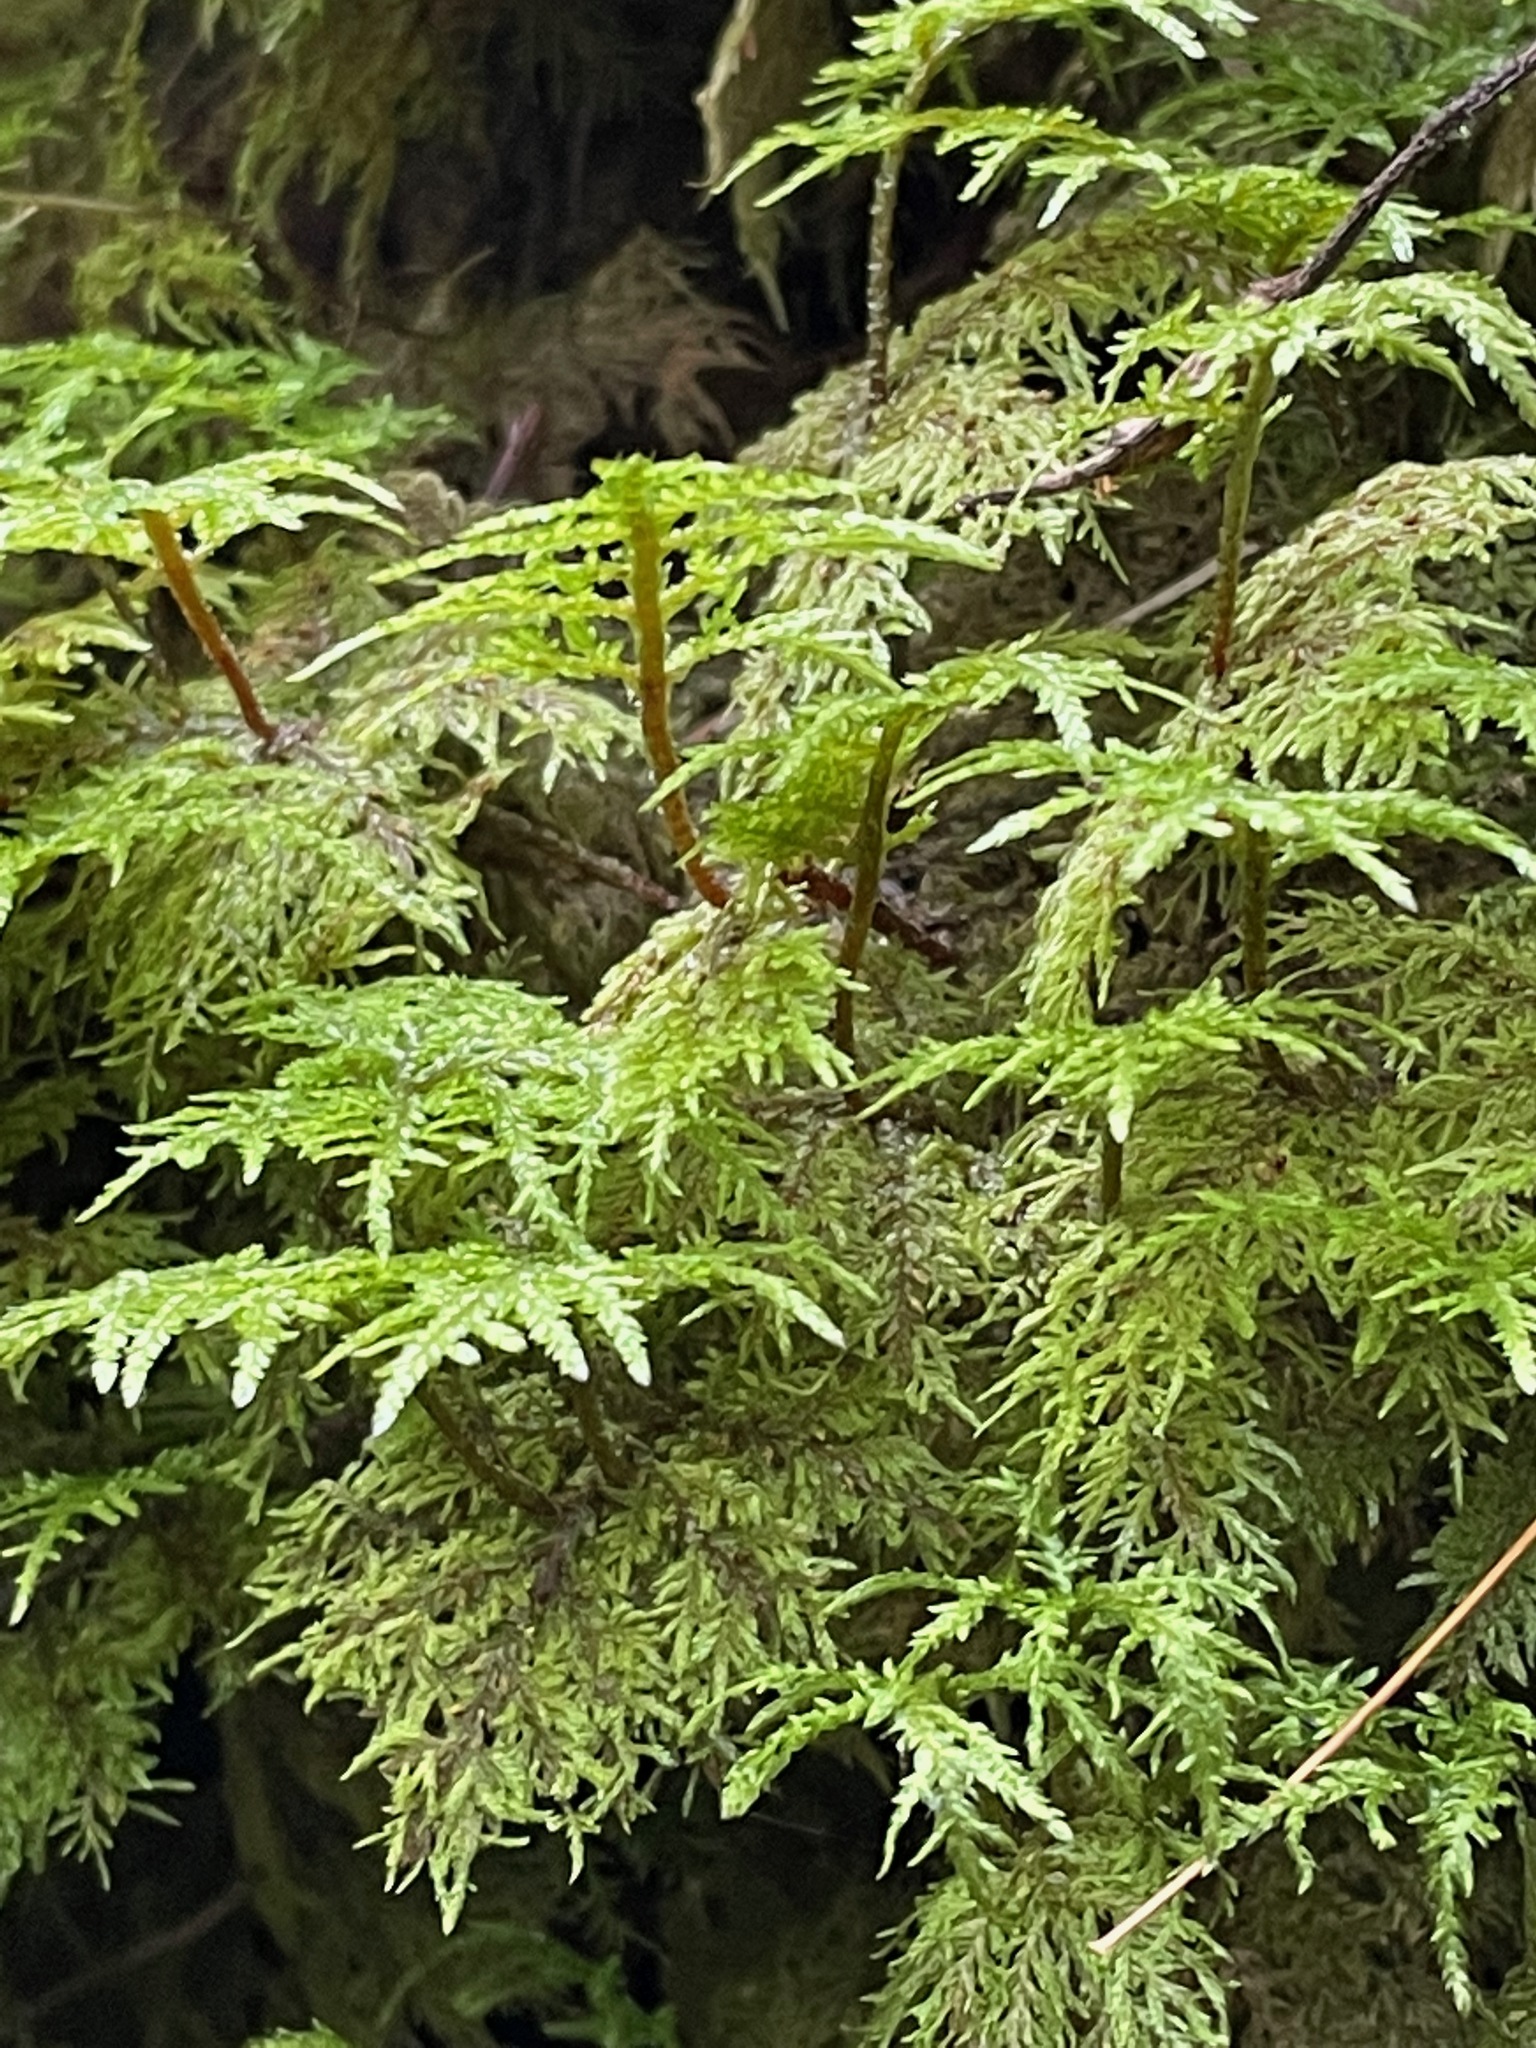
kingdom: Plantae
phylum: Bryophyta
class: Bryopsida
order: Hypnales
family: Hylocomiaceae
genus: Hylocomium
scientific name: Hylocomium splendens
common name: Stairstep moss
